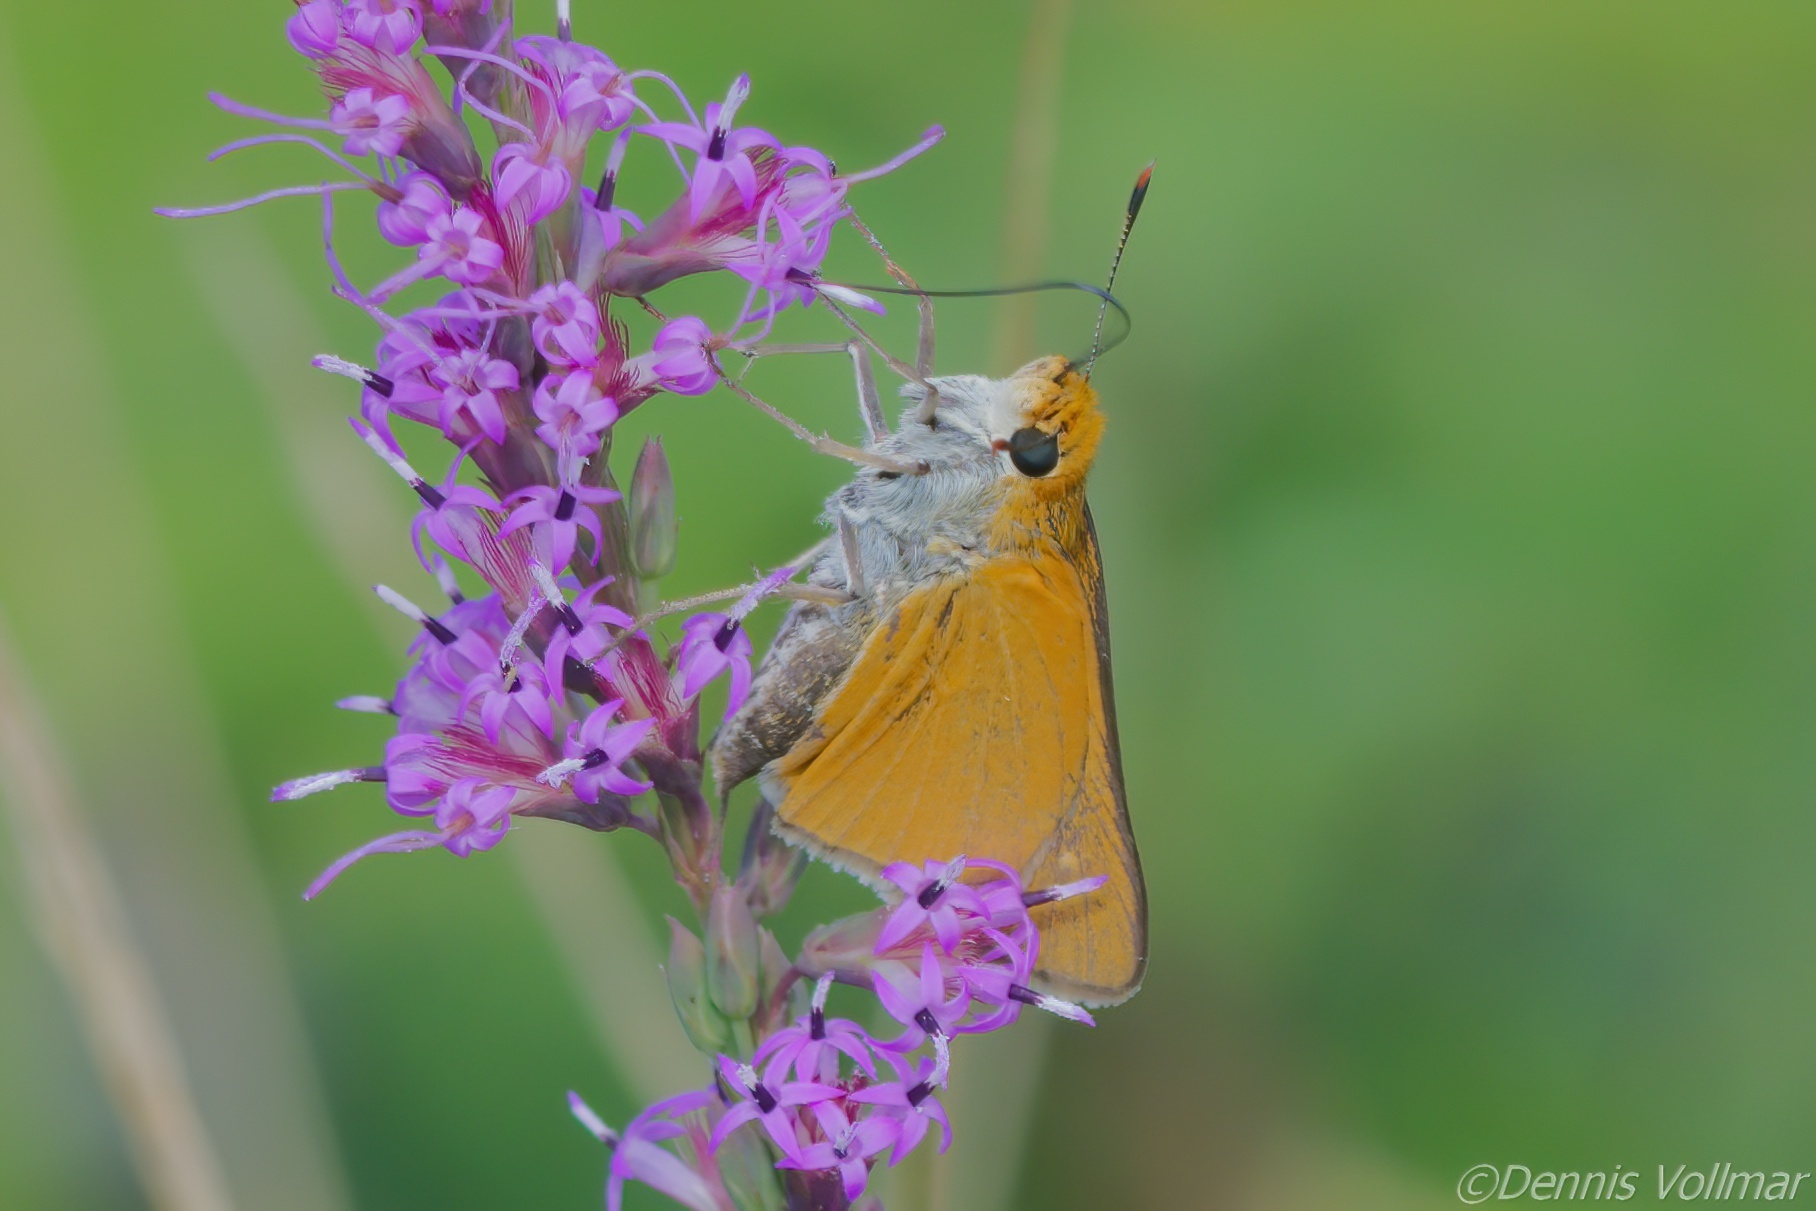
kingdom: Animalia
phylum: Arthropoda
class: Insecta
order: Lepidoptera
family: Hesperiidae
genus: Euphyes
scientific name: Euphyes arpa
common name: Palmetto skipper
